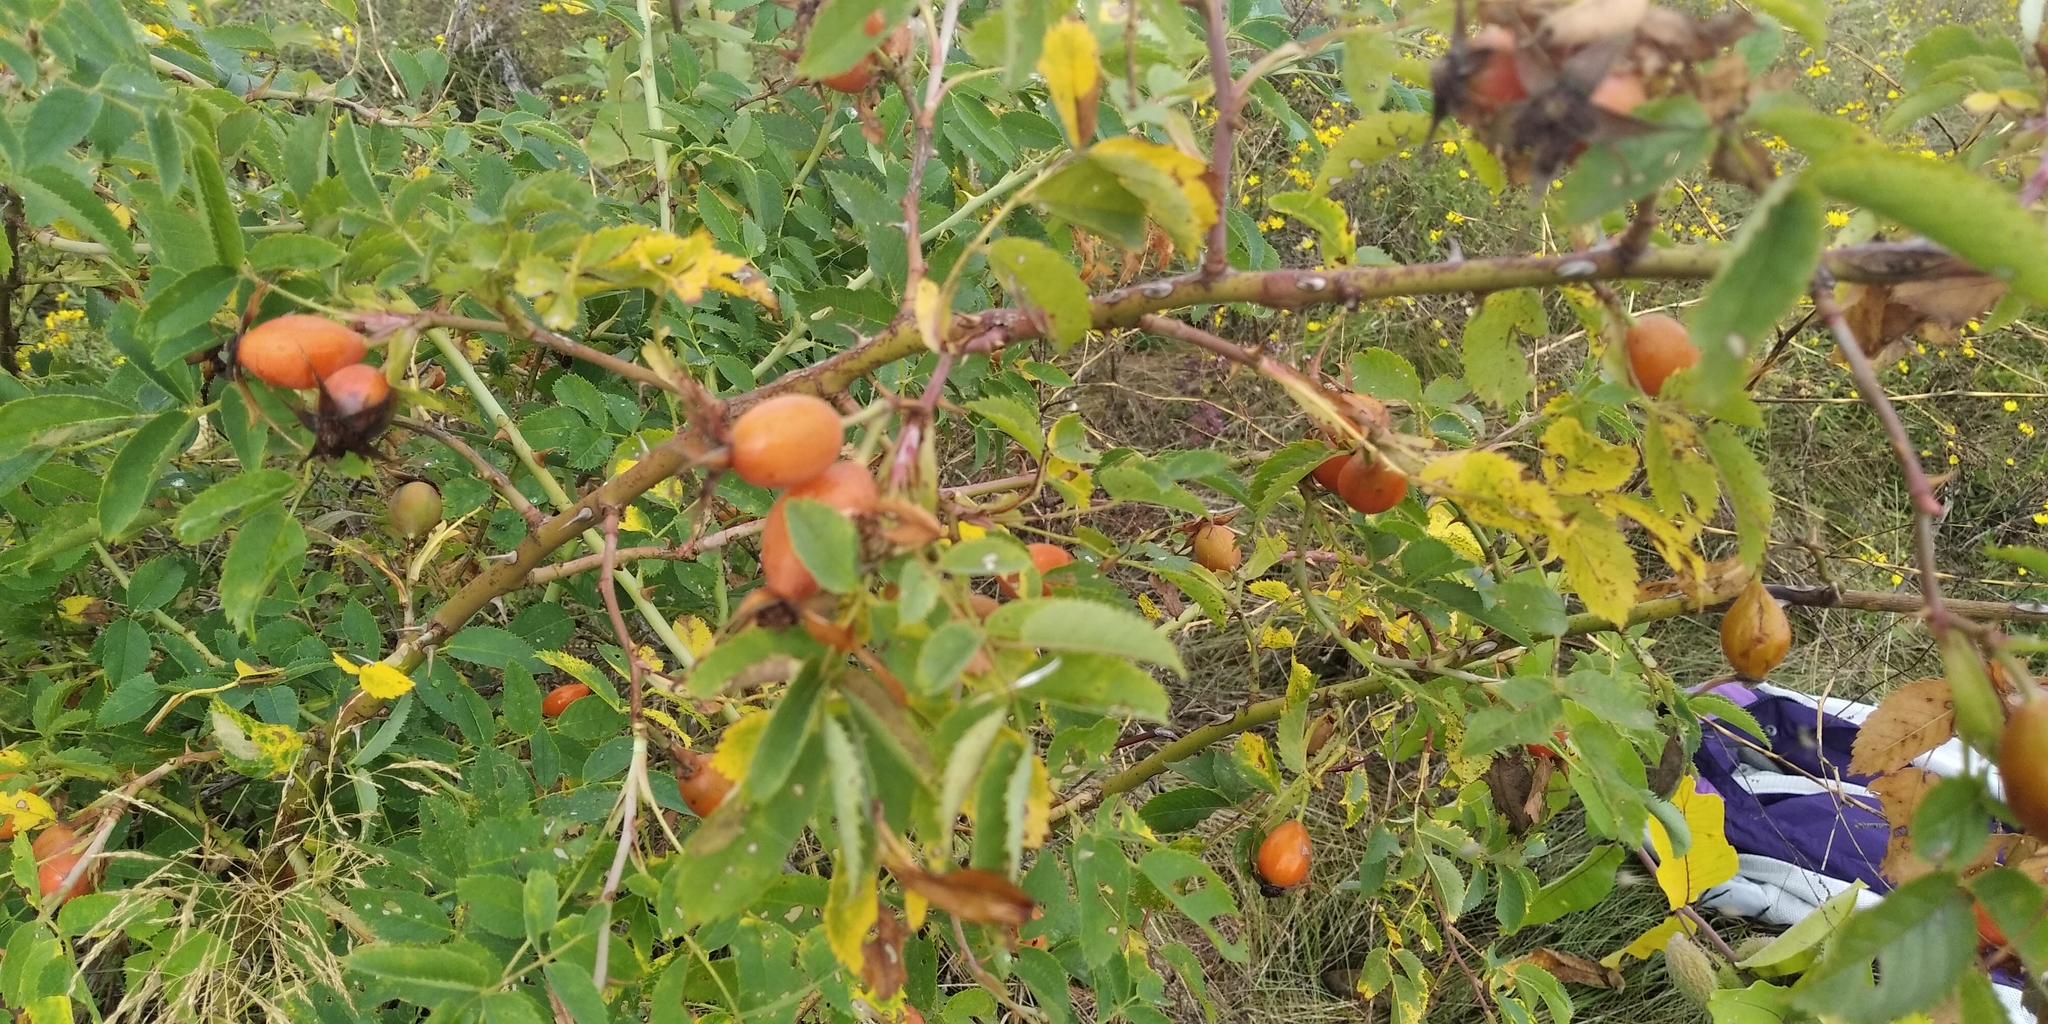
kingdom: Plantae
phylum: Tracheophyta
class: Magnoliopsida
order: Rosales
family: Rosaceae
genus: Rosa
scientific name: Rosa canina
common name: Dog rose
